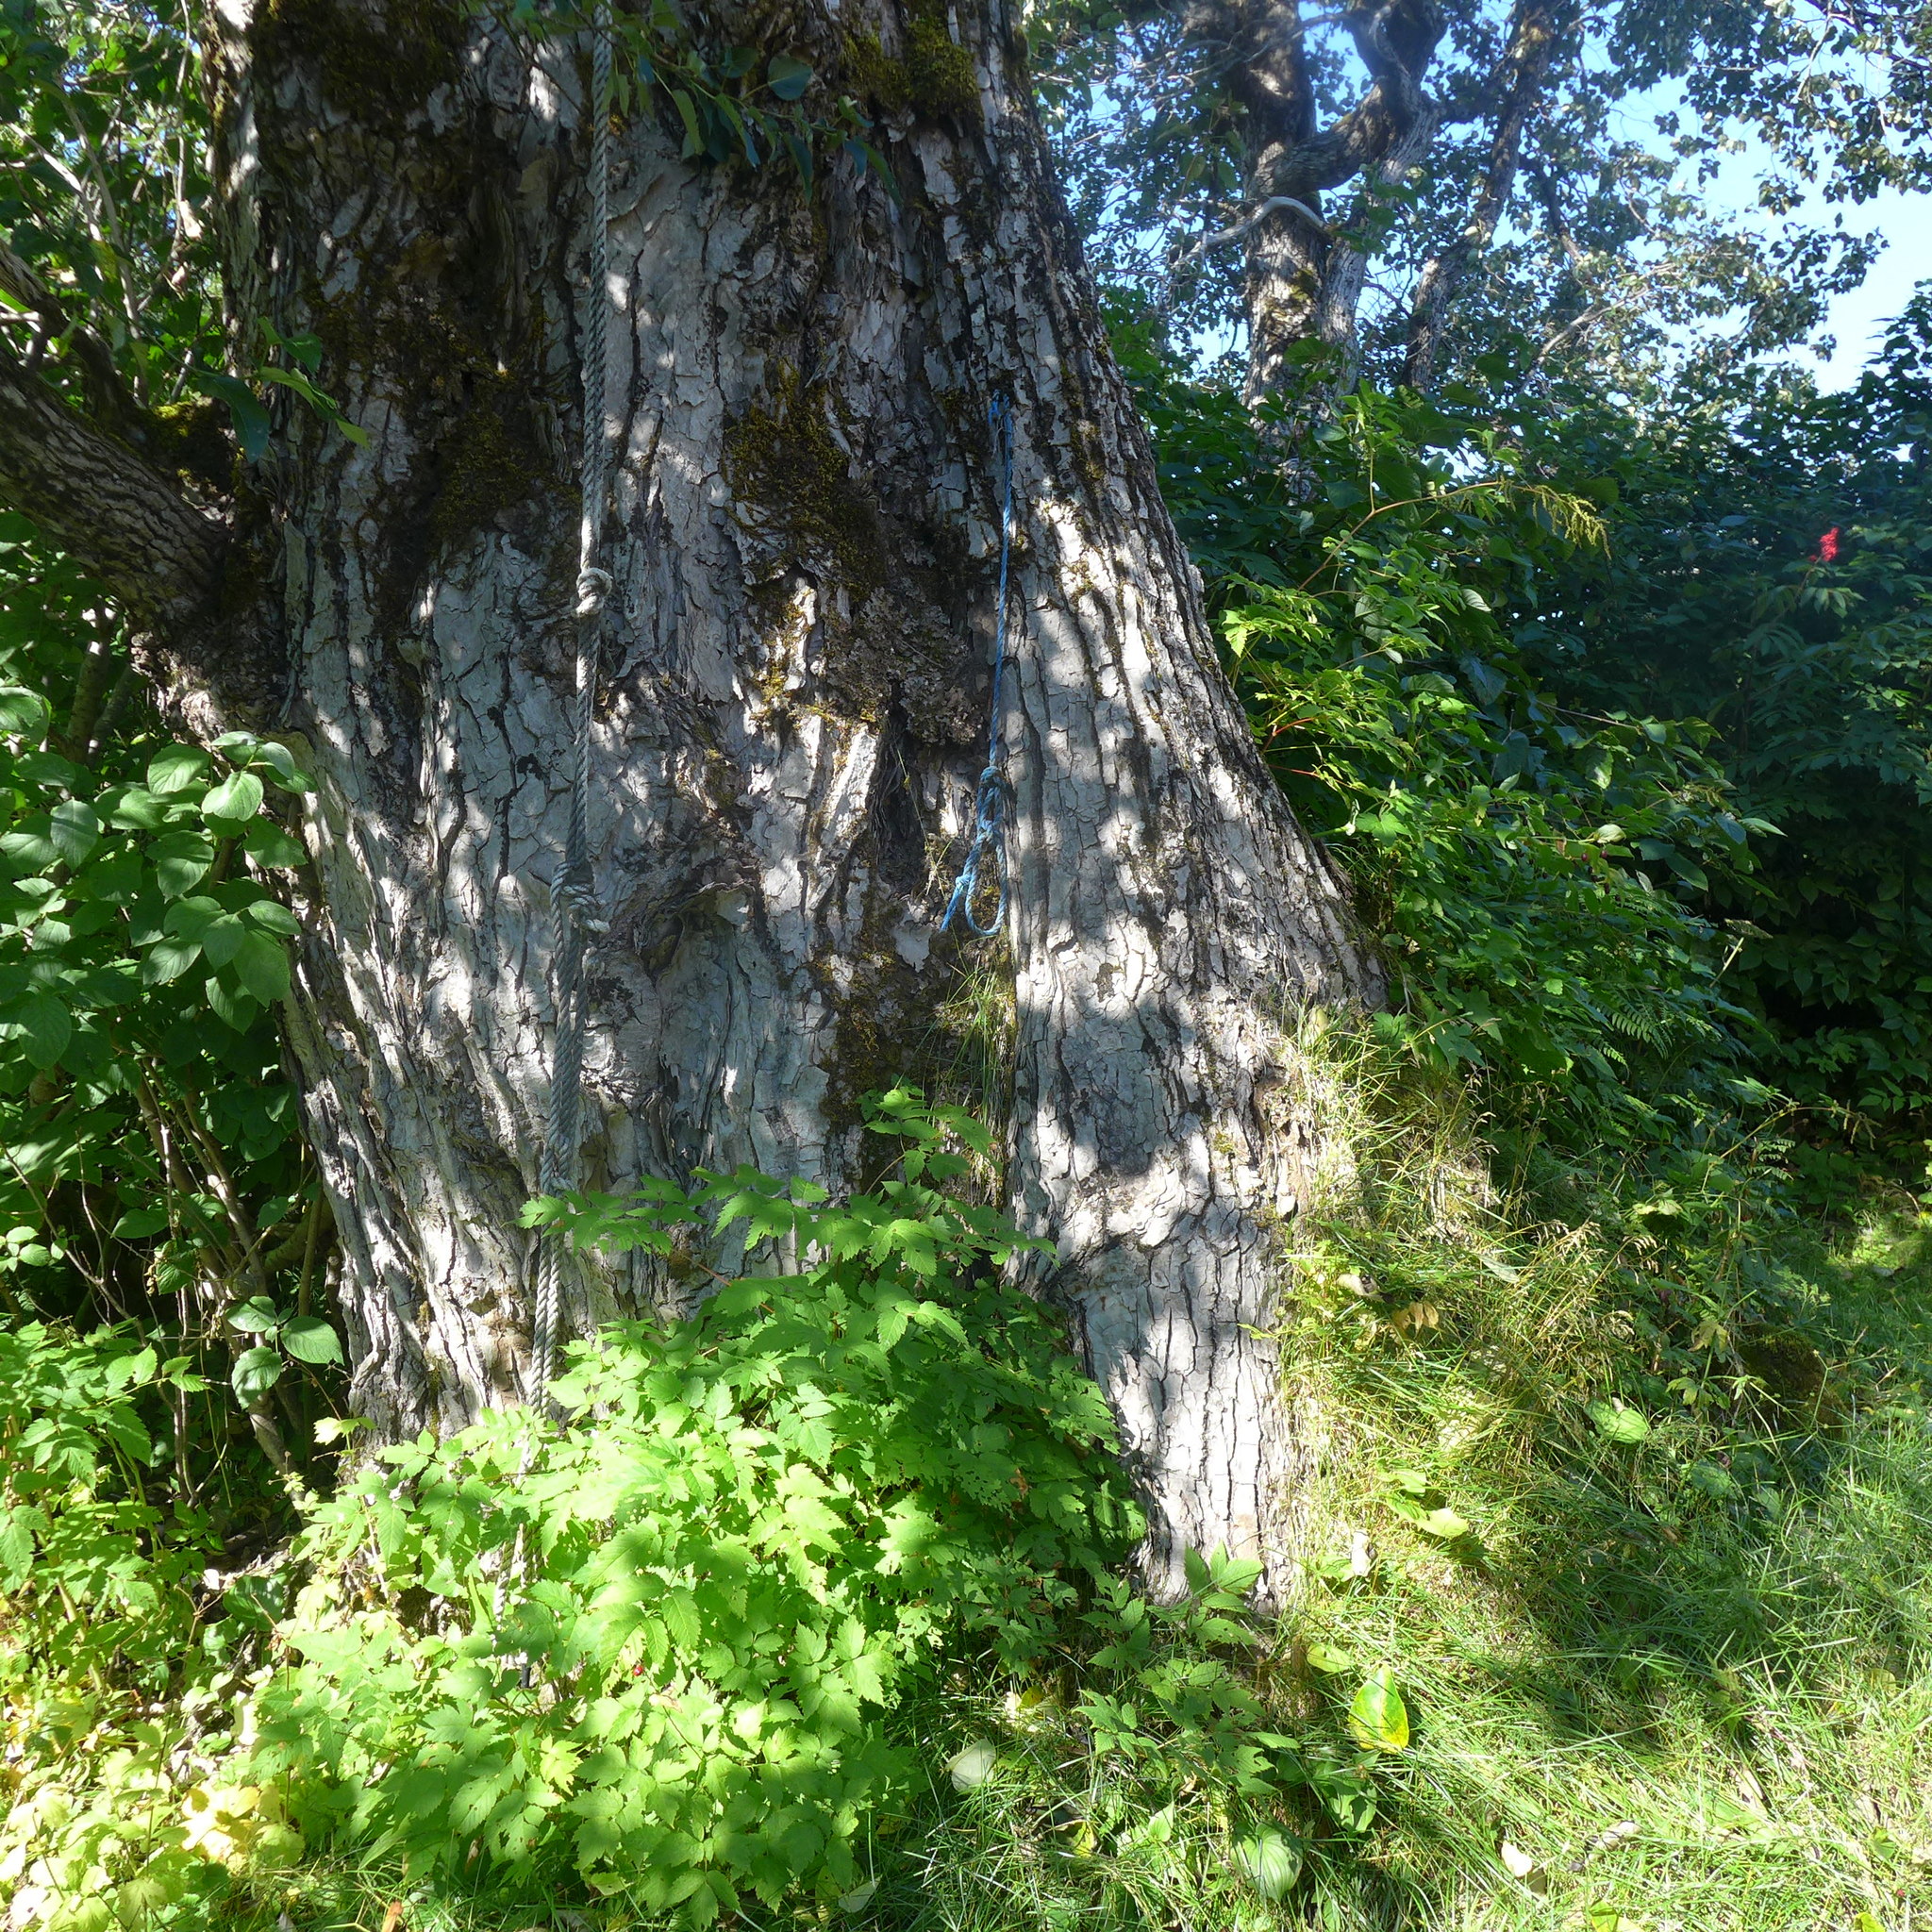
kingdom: Plantae
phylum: Tracheophyta
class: Magnoliopsida
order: Malpighiales
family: Salicaceae
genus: Populus
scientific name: Populus trichocarpa
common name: Black cottonwood
